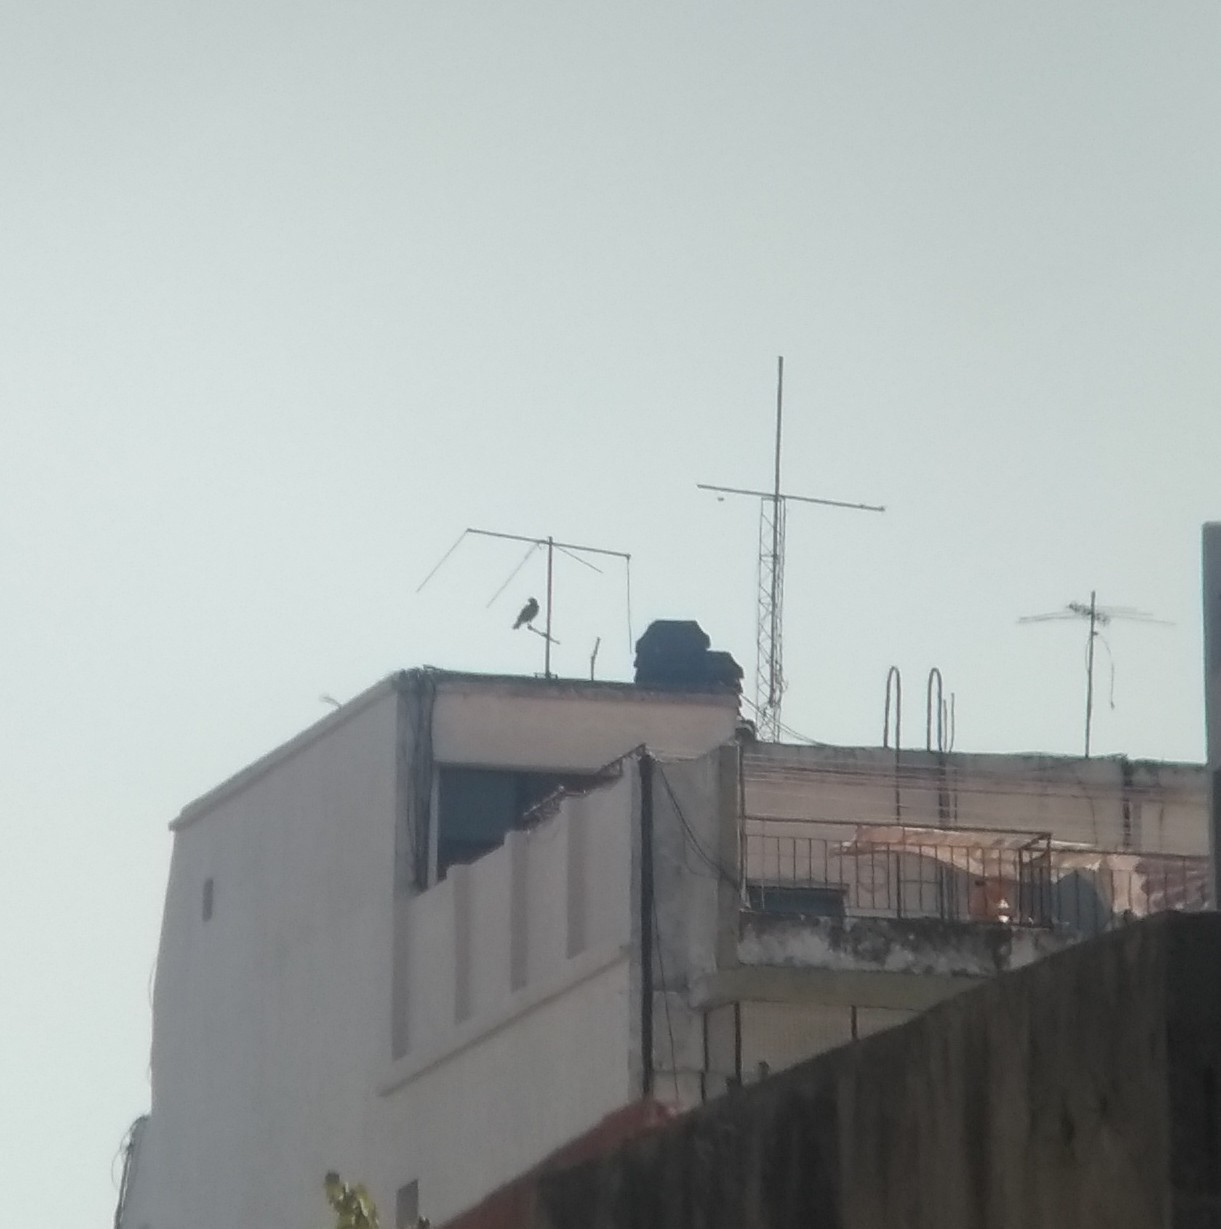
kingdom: Animalia
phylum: Chordata
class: Aves
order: Accipitriformes
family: Accipitridae
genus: Parabuteo
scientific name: Parabuteo unicinctus
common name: Harris's hawk
